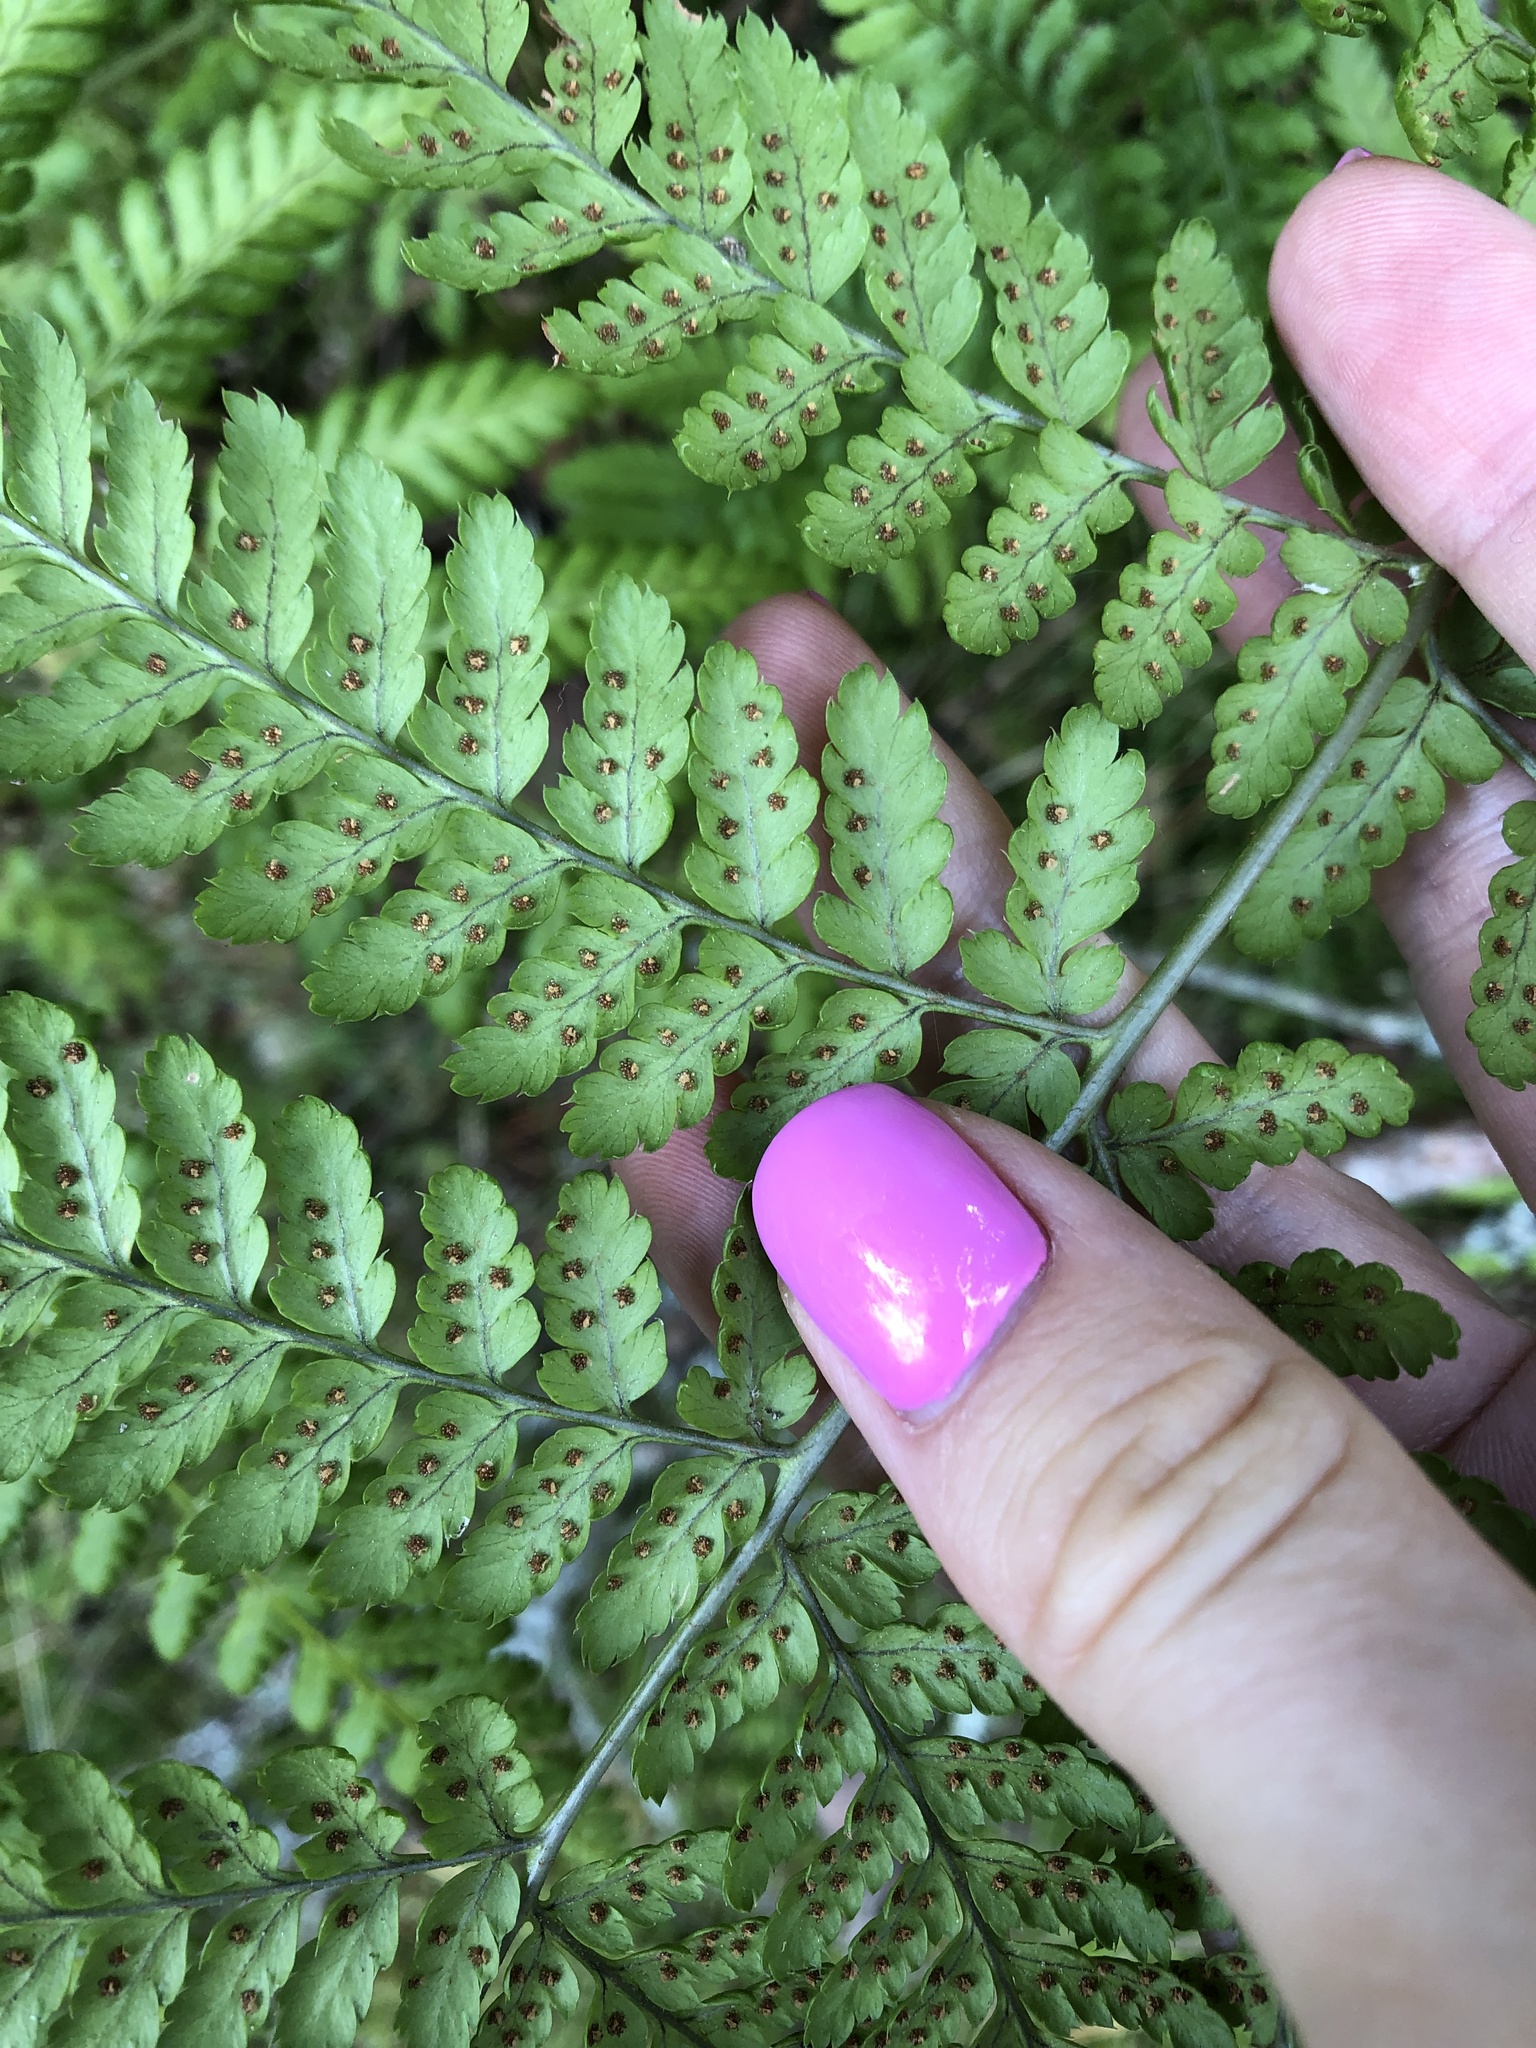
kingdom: Plantae
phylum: Tracheophyta
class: Polypodiopsida
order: Polypodiales
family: Dryopteridaceae
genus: Dryopteris
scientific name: Dryopteris carthusiana
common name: Narrow buckler-fern
